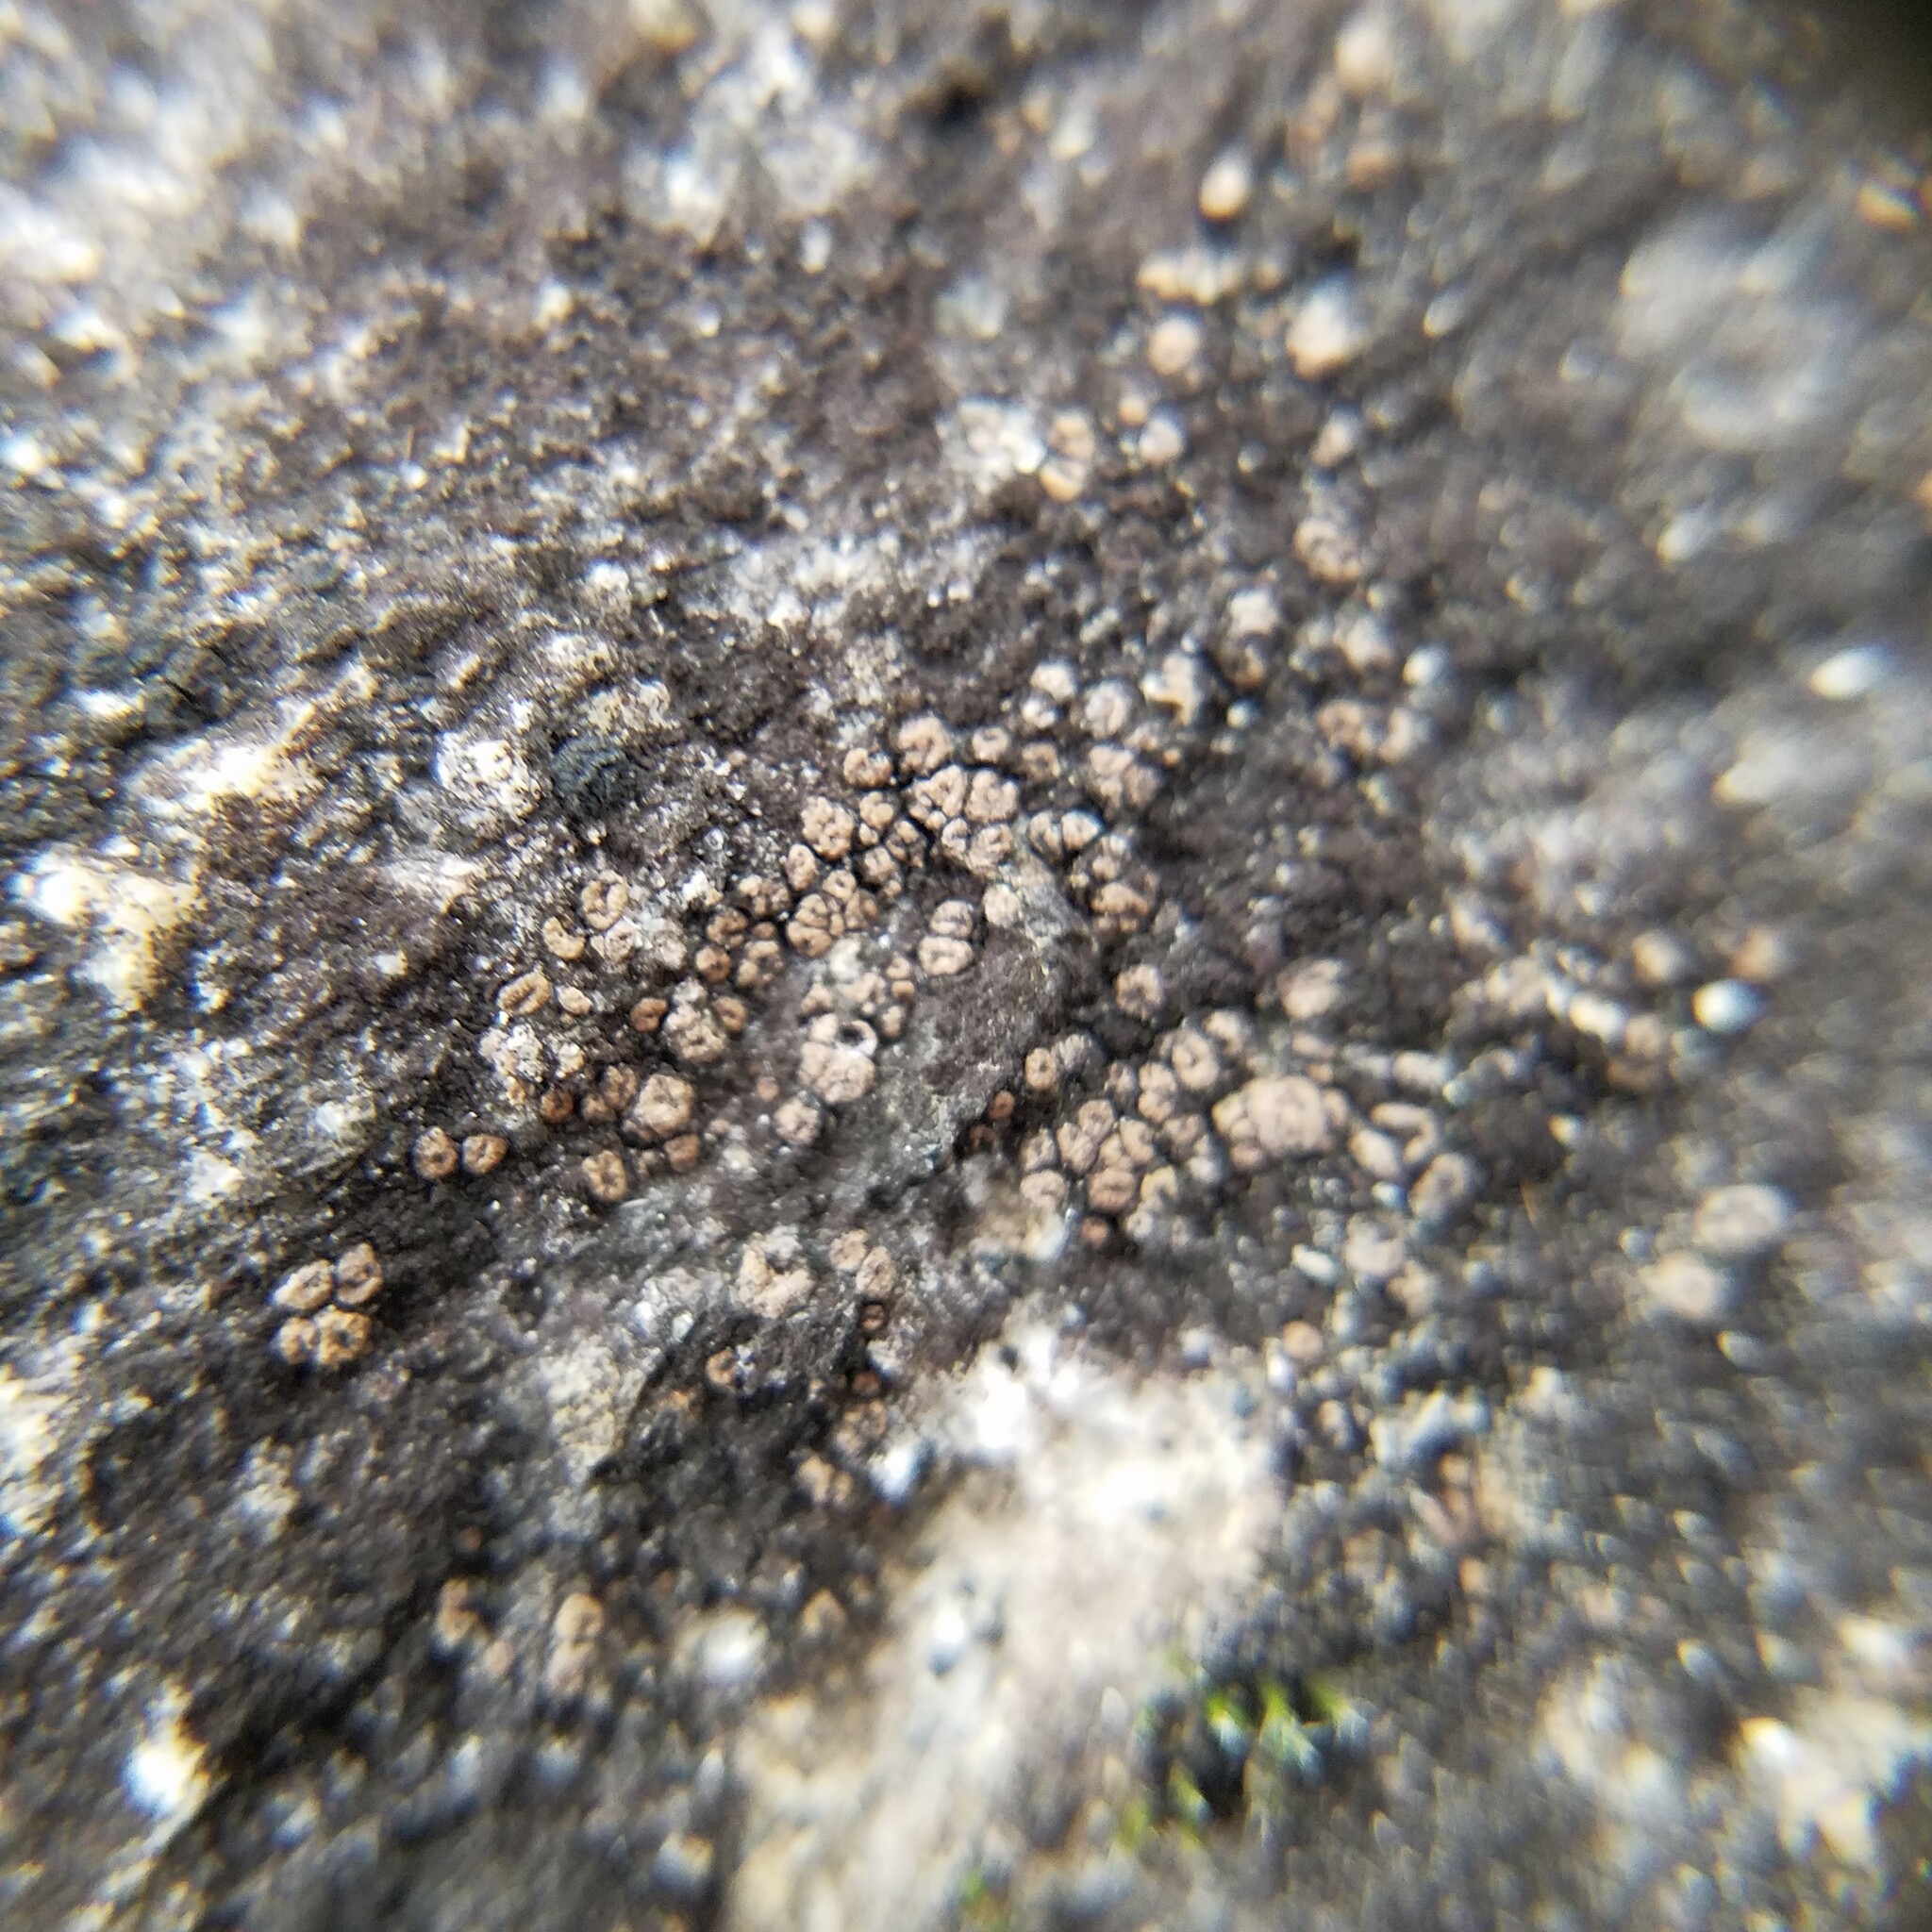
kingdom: Fungi
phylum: Ascomycota
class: Lecanoromycetes
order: Acarosporales
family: Acarosporaceae
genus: Acarospora
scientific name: Acarospora janae
